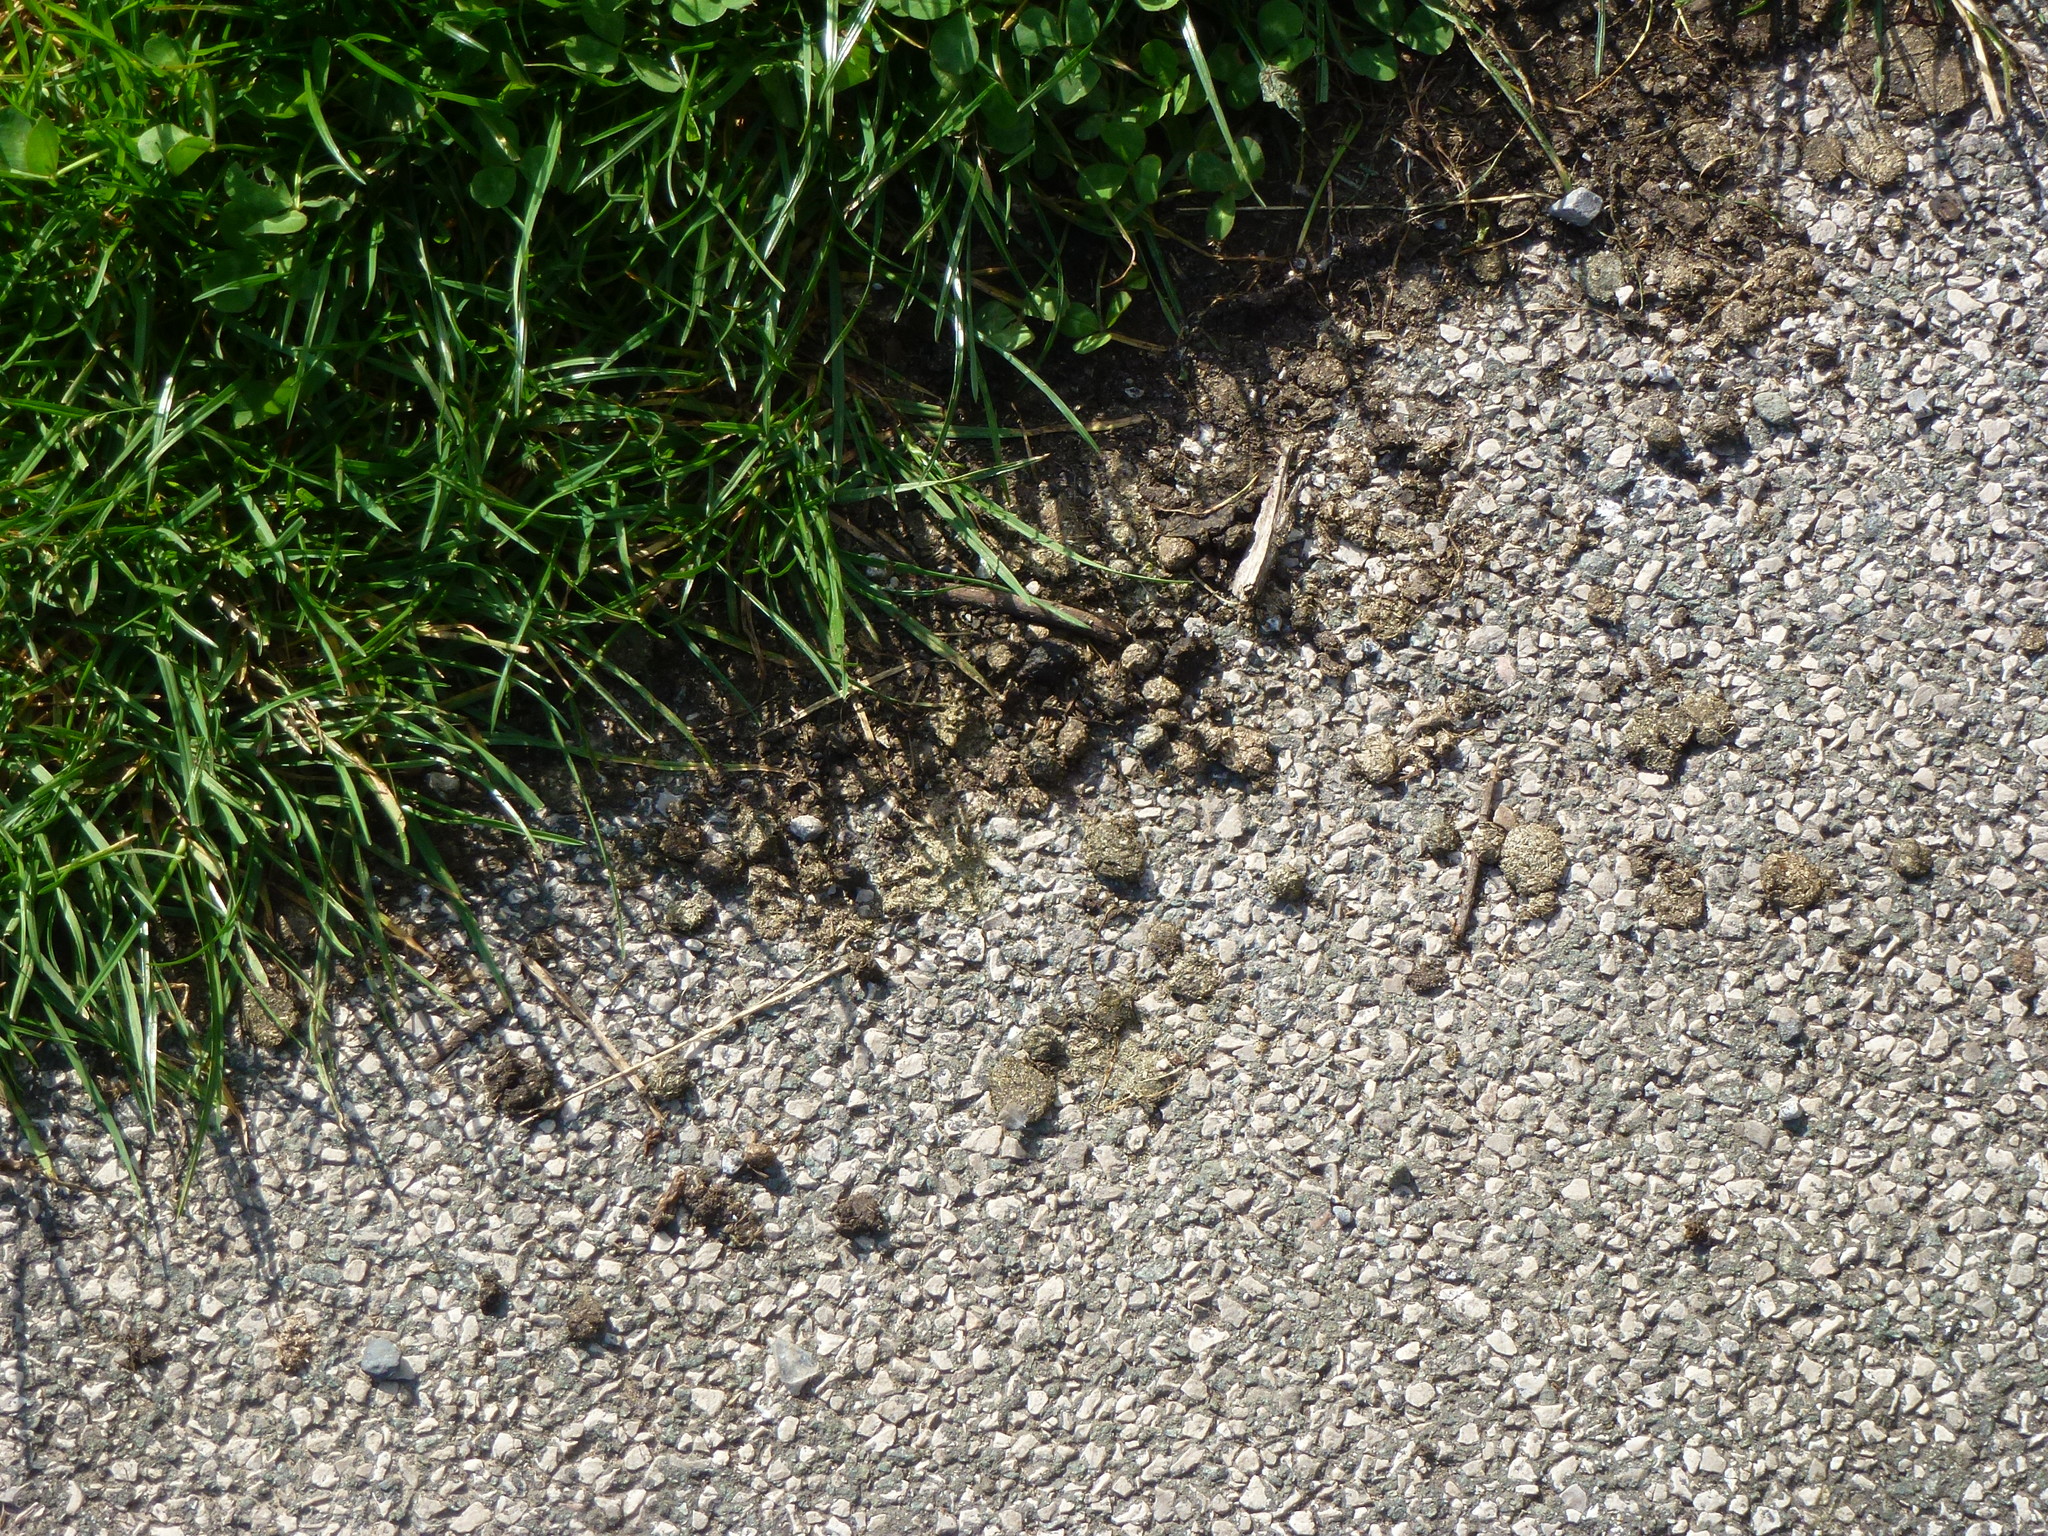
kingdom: Animalia
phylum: Chordata
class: Mammalia
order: Lagomorpha
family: Leporidae
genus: Oryctolagus
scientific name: Oryctolagus cuniculus
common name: European rabbit
